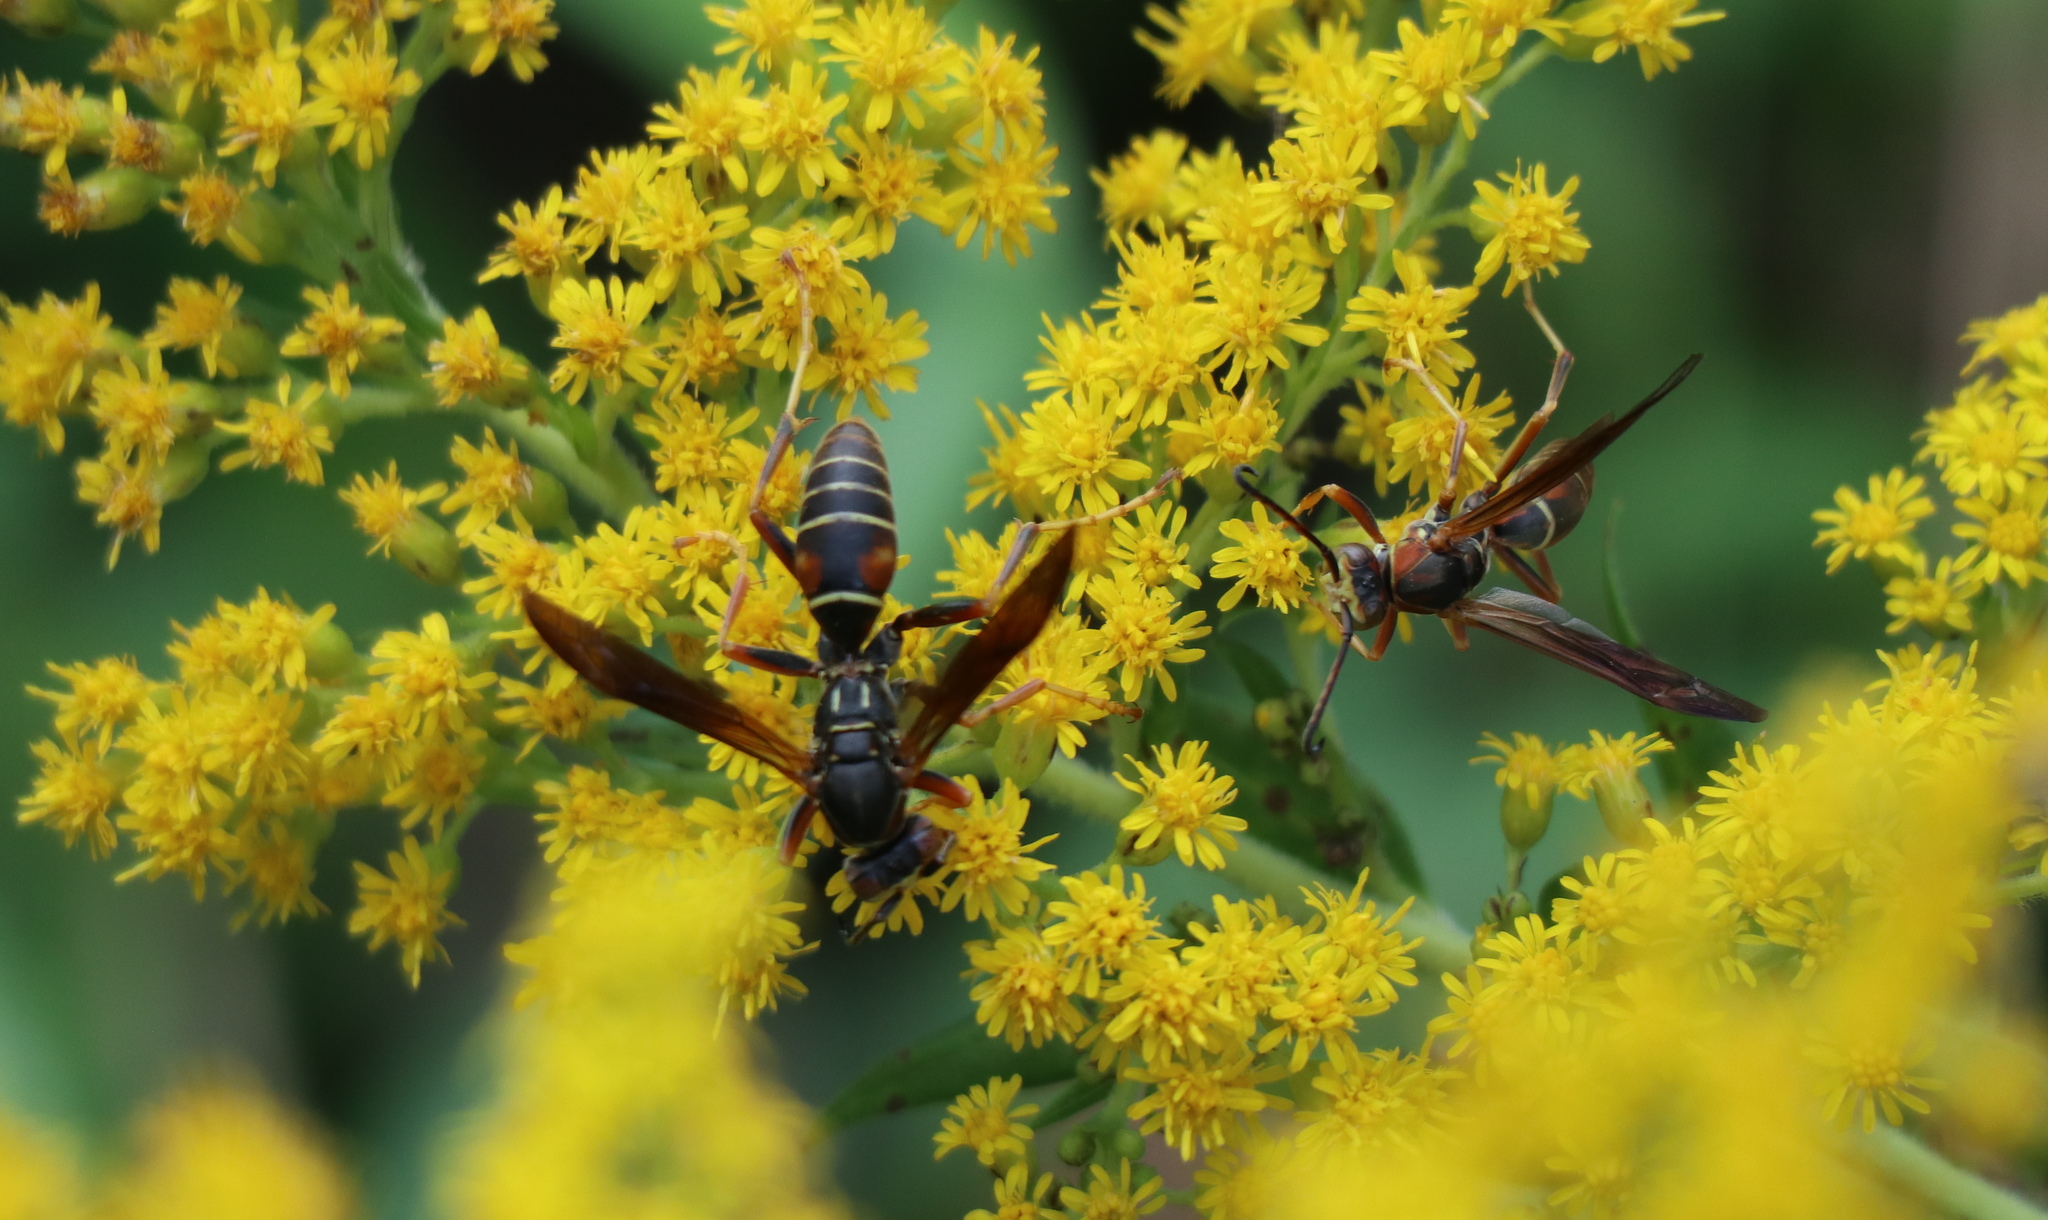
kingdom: Animalia
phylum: Arthropoda
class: Insecta
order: Hymenoptera
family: Eumenidae
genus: Polistes
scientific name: Polistes fuscatus
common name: Dark paper wasp
